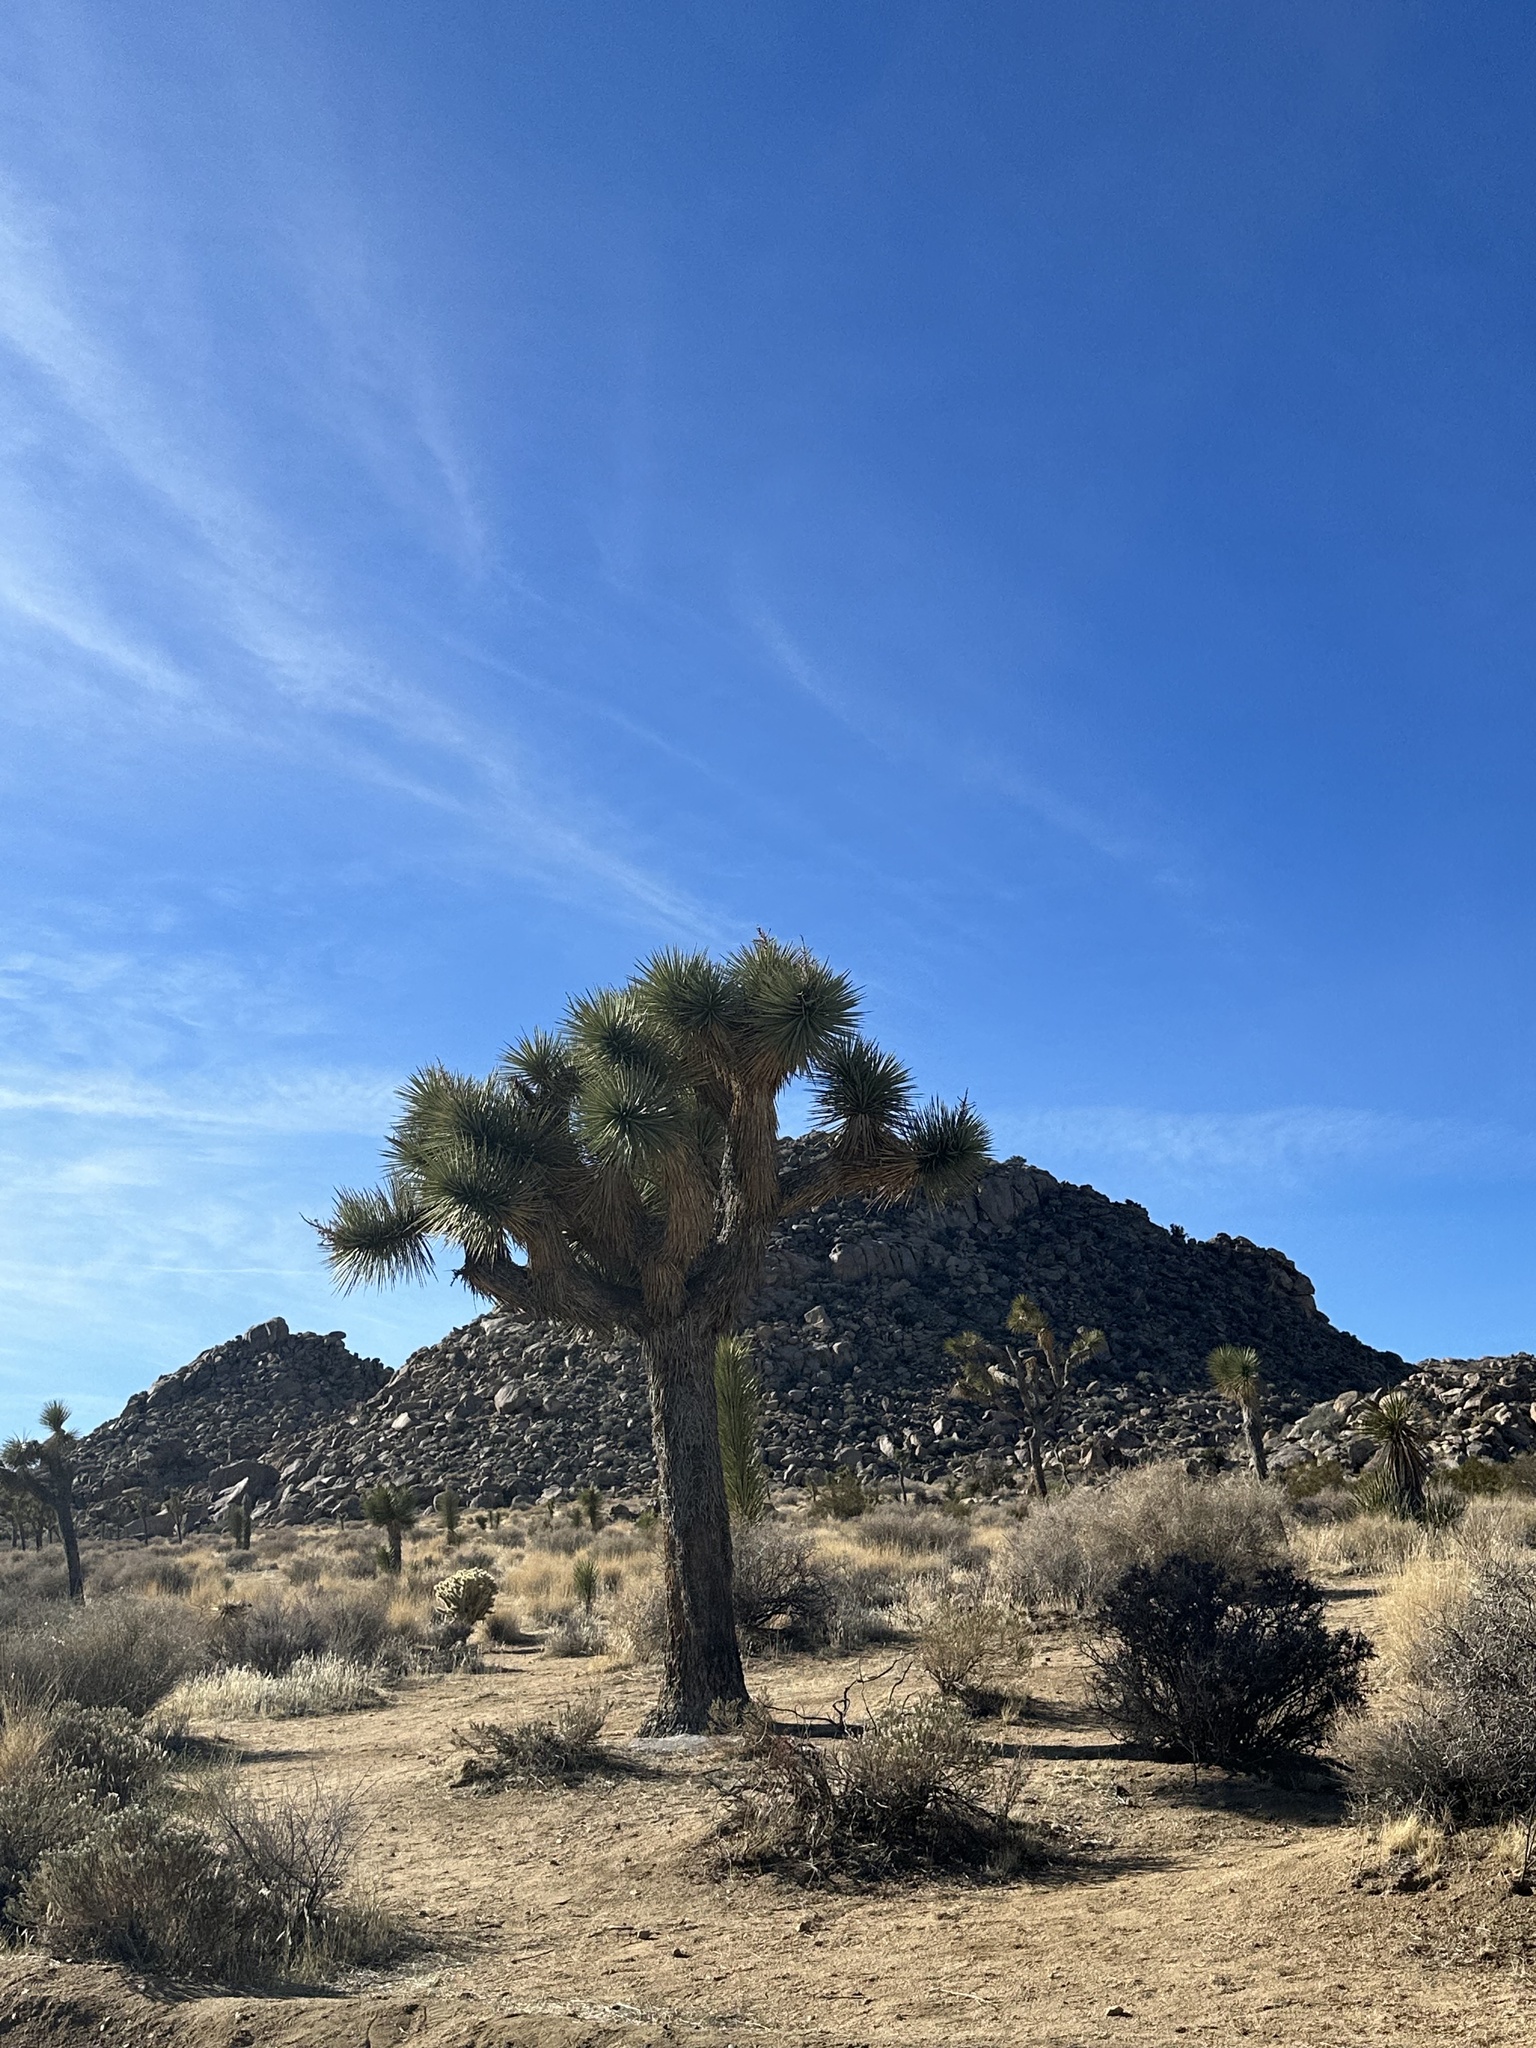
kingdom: Plantae
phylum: Tracheophyta
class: Liliopsida
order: Asparagales
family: Asparagaceae
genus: Yucca
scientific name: Yucca brevifolia
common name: Joshua tree
